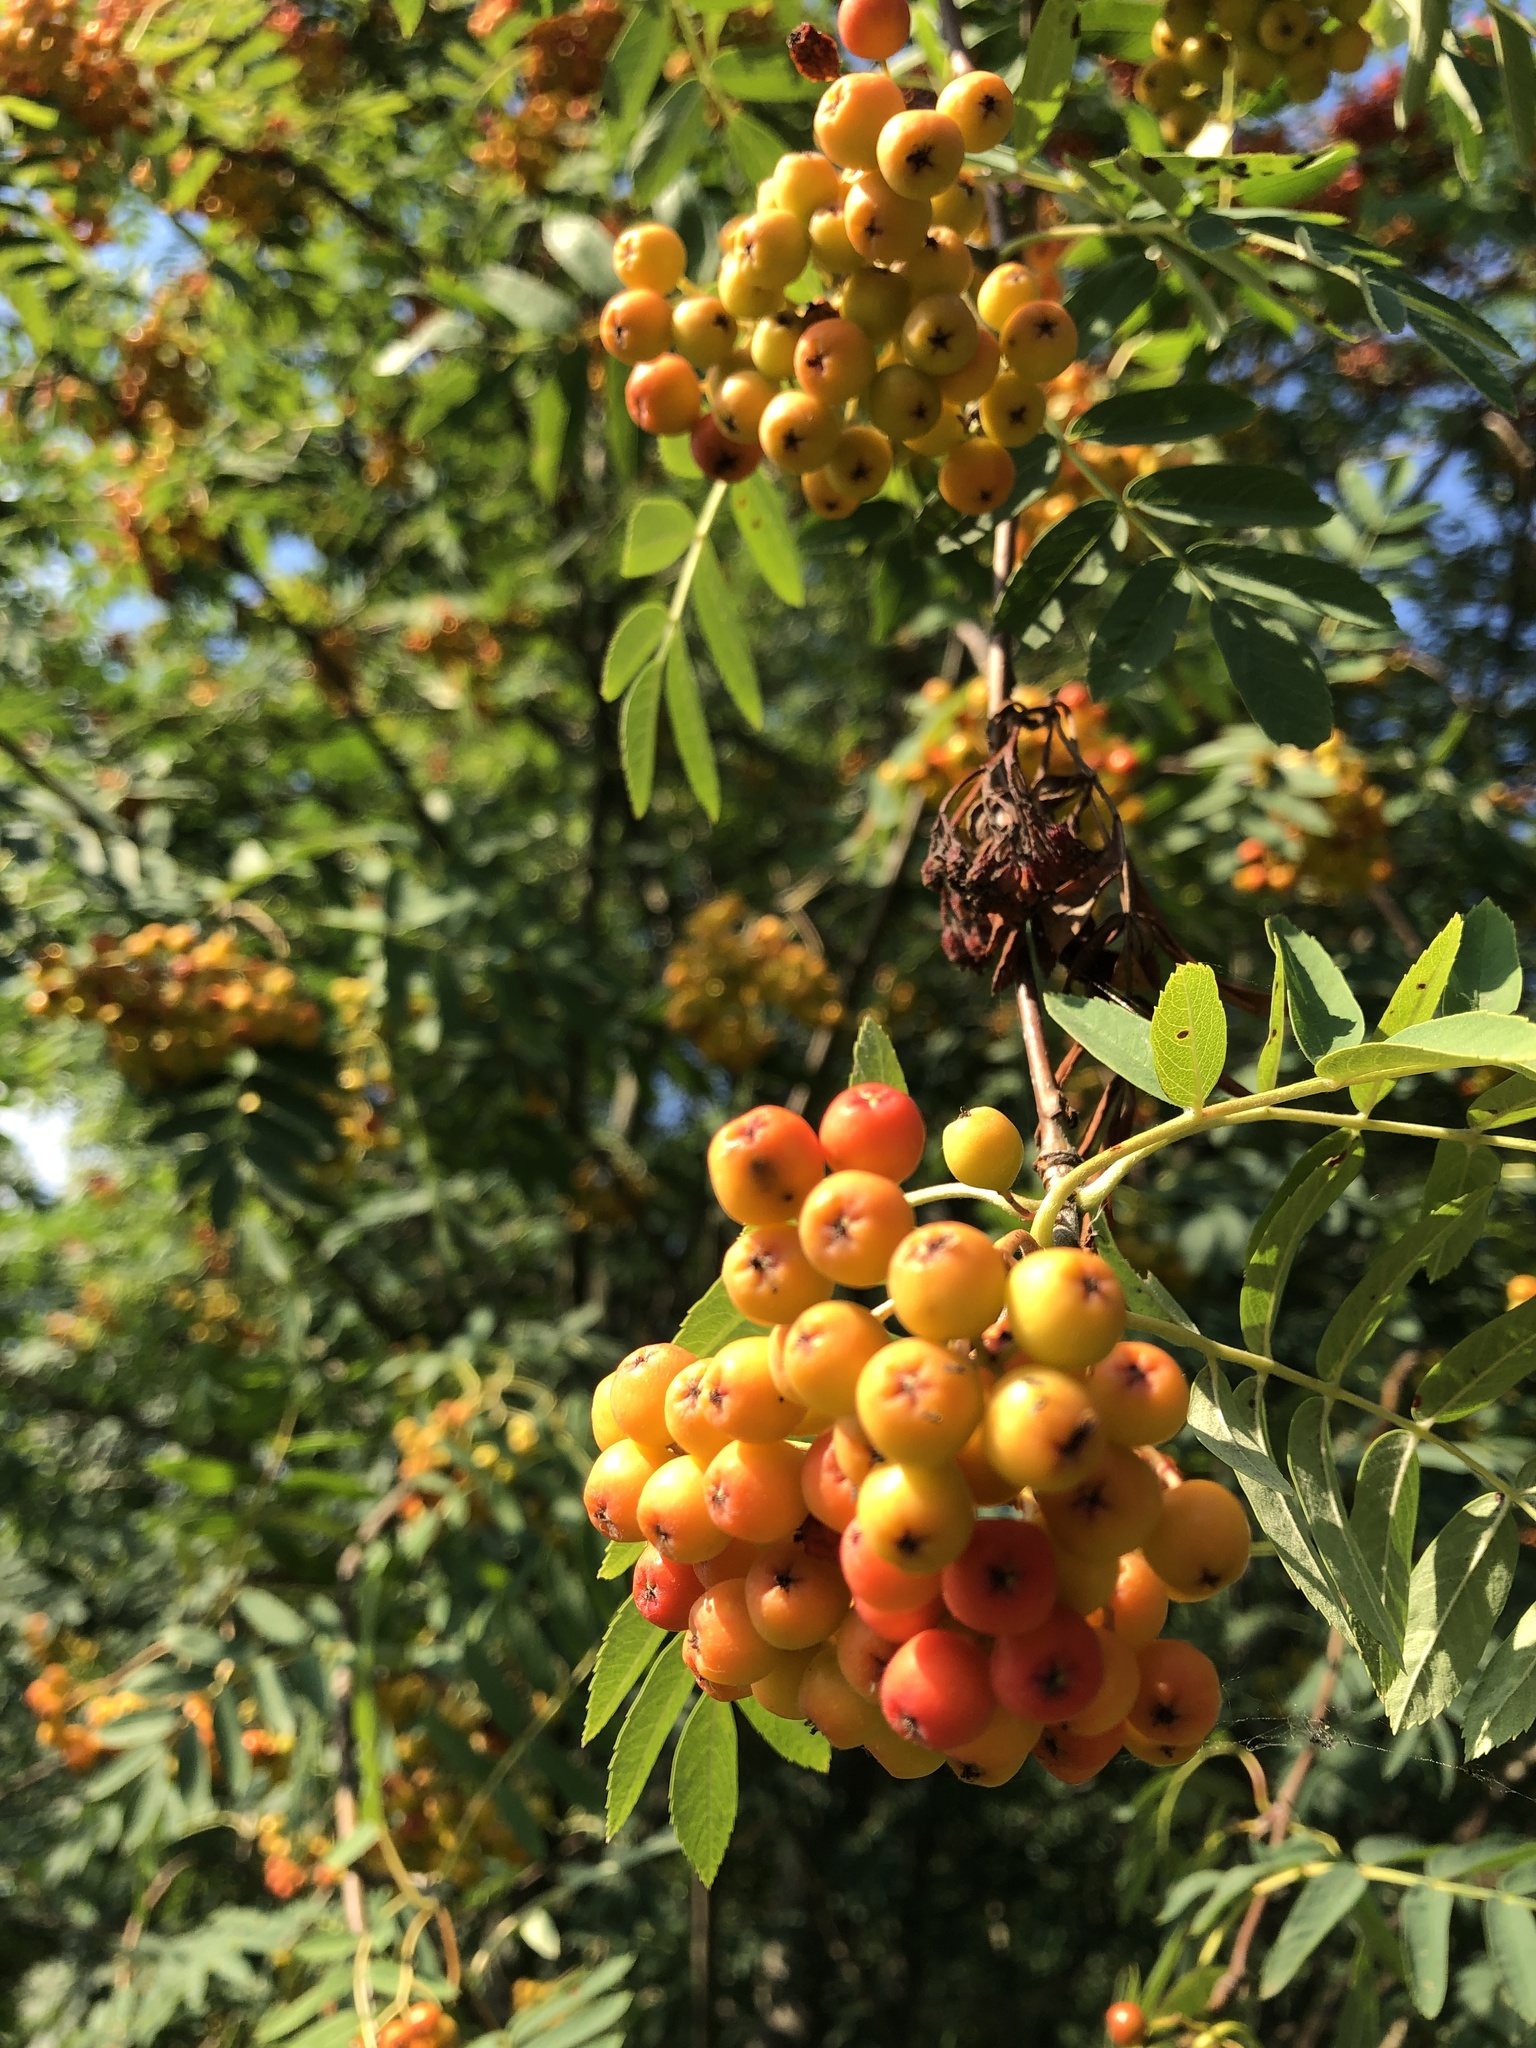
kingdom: Plantae
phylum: Tracheophyta
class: Magnoliopsida
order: Rosales
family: Rosaceae
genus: Sorbus
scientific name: Sorbus aucuparia
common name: Rowan
